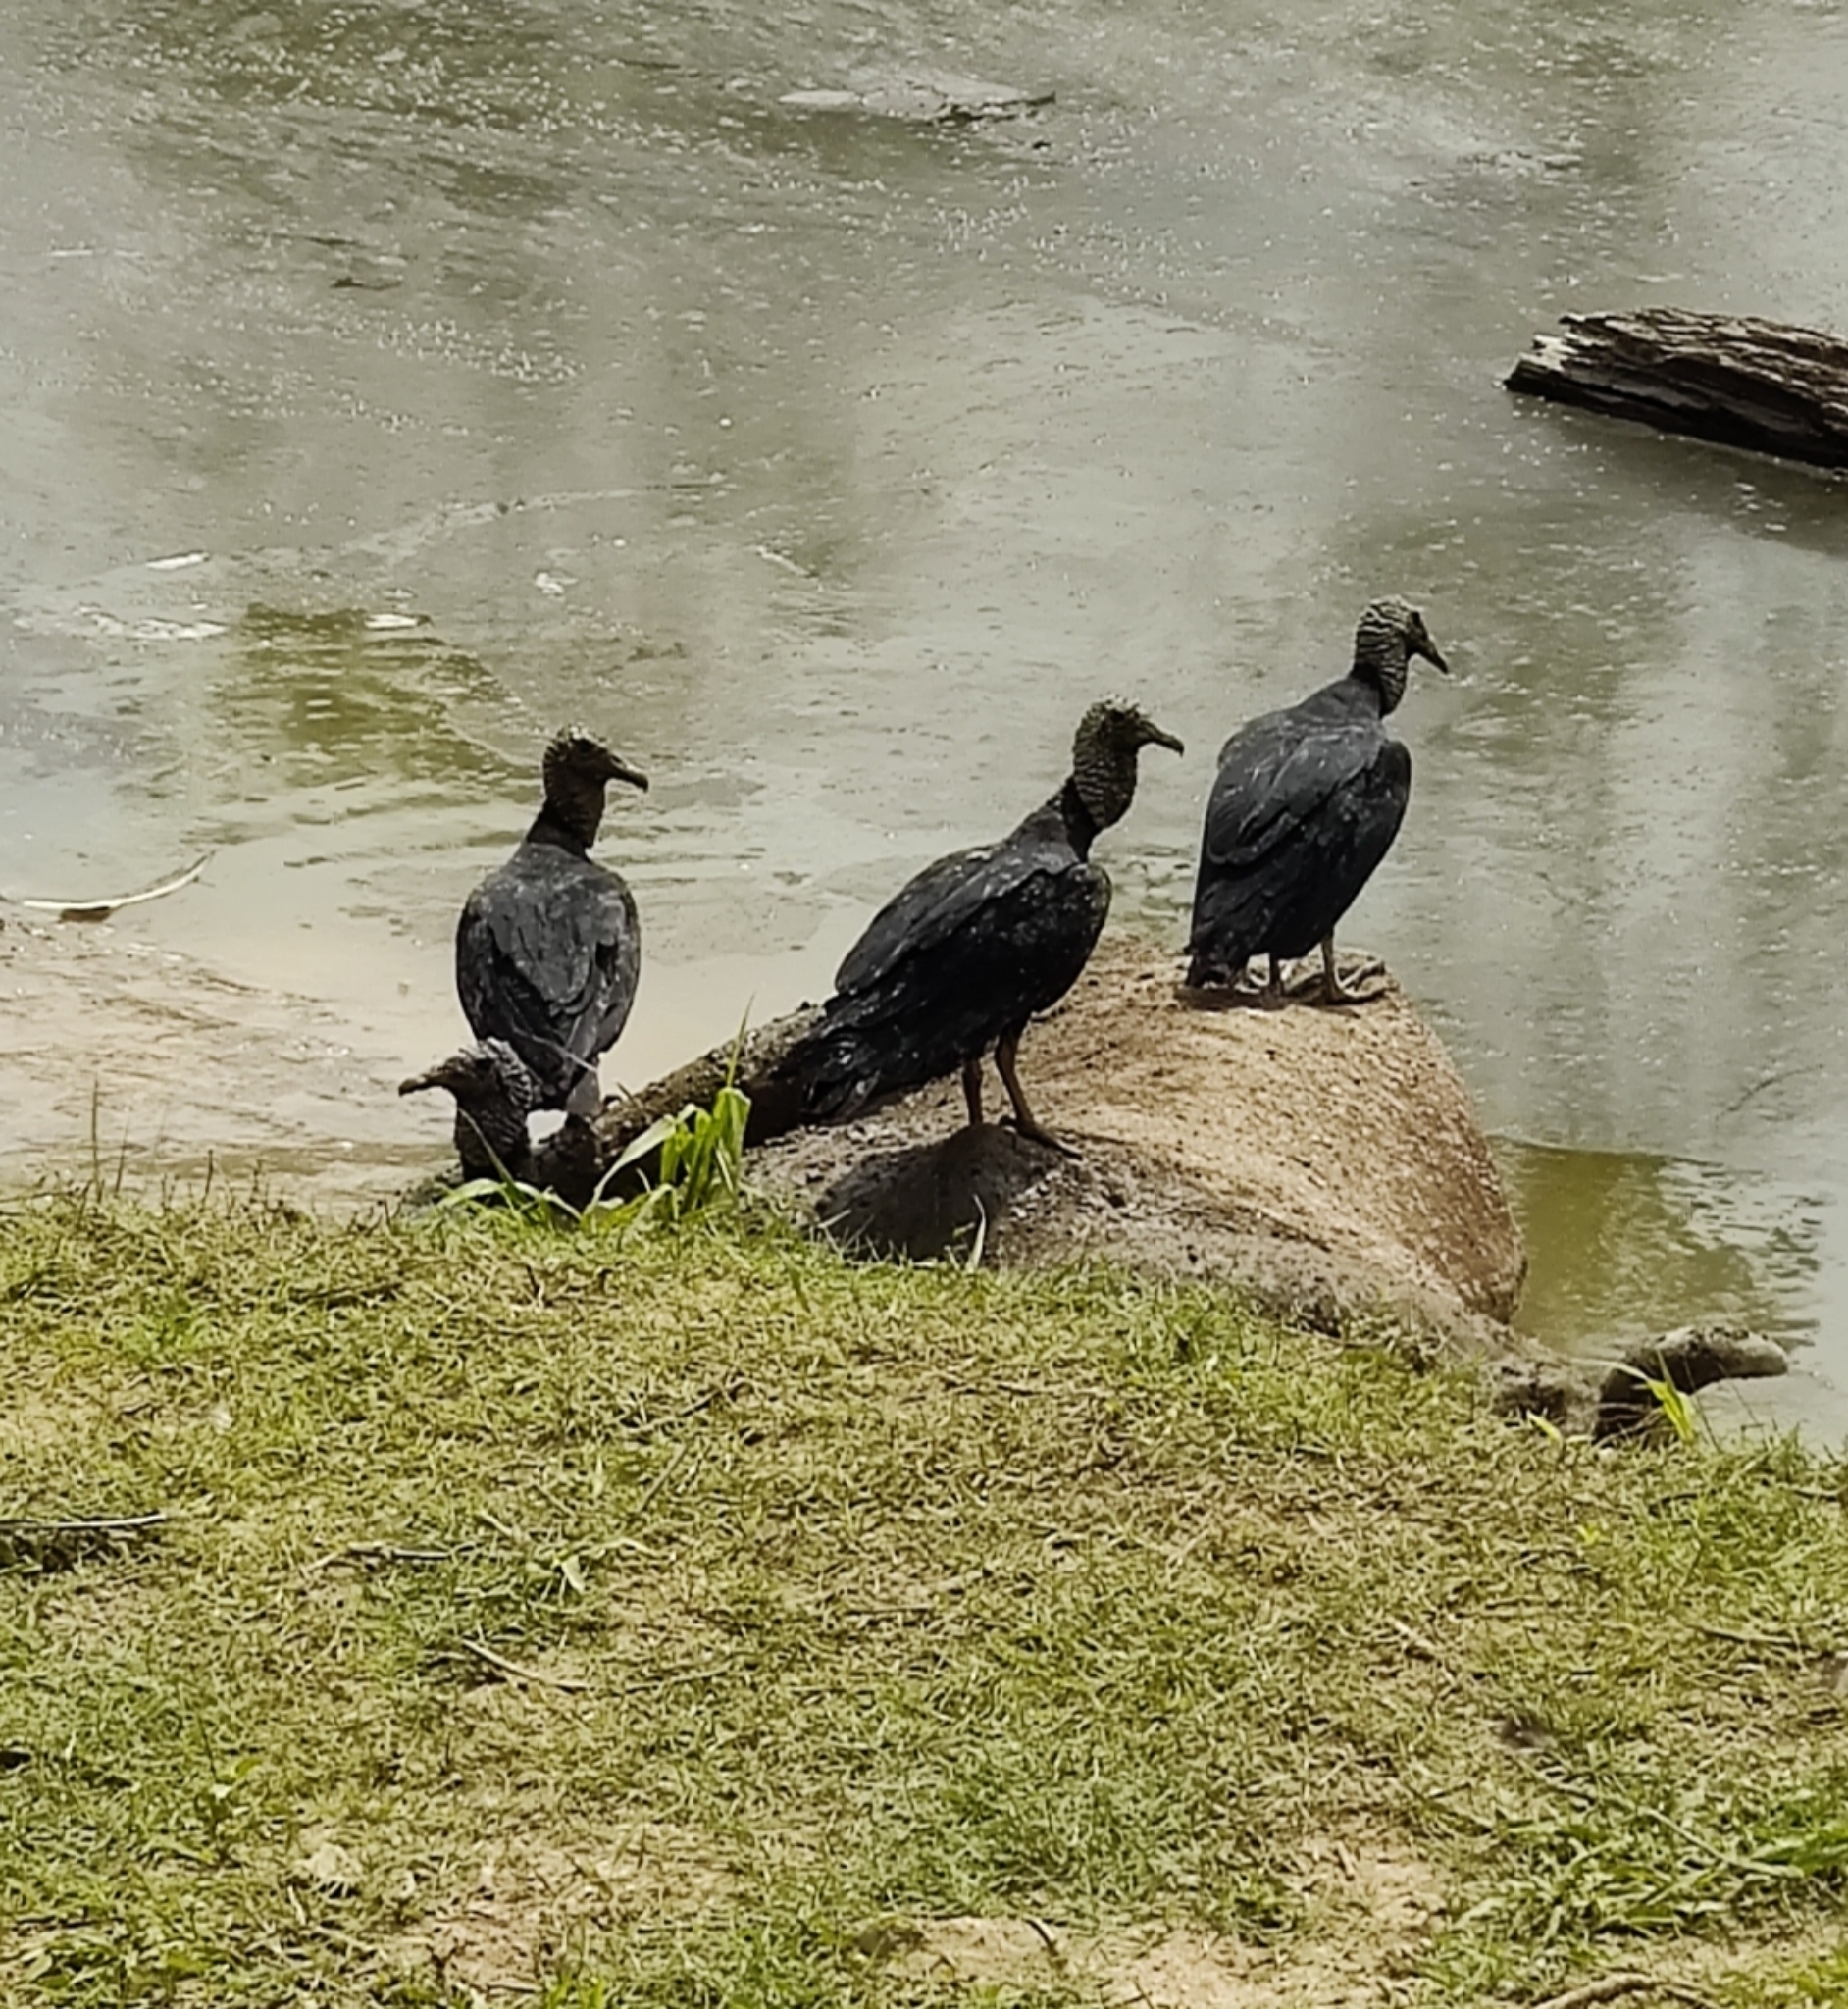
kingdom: Animalia
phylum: Chordata
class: Aves
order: Accipitriformes
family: Cathartidae
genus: Coragyps
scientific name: Coragyps atratus
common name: Black vulture
